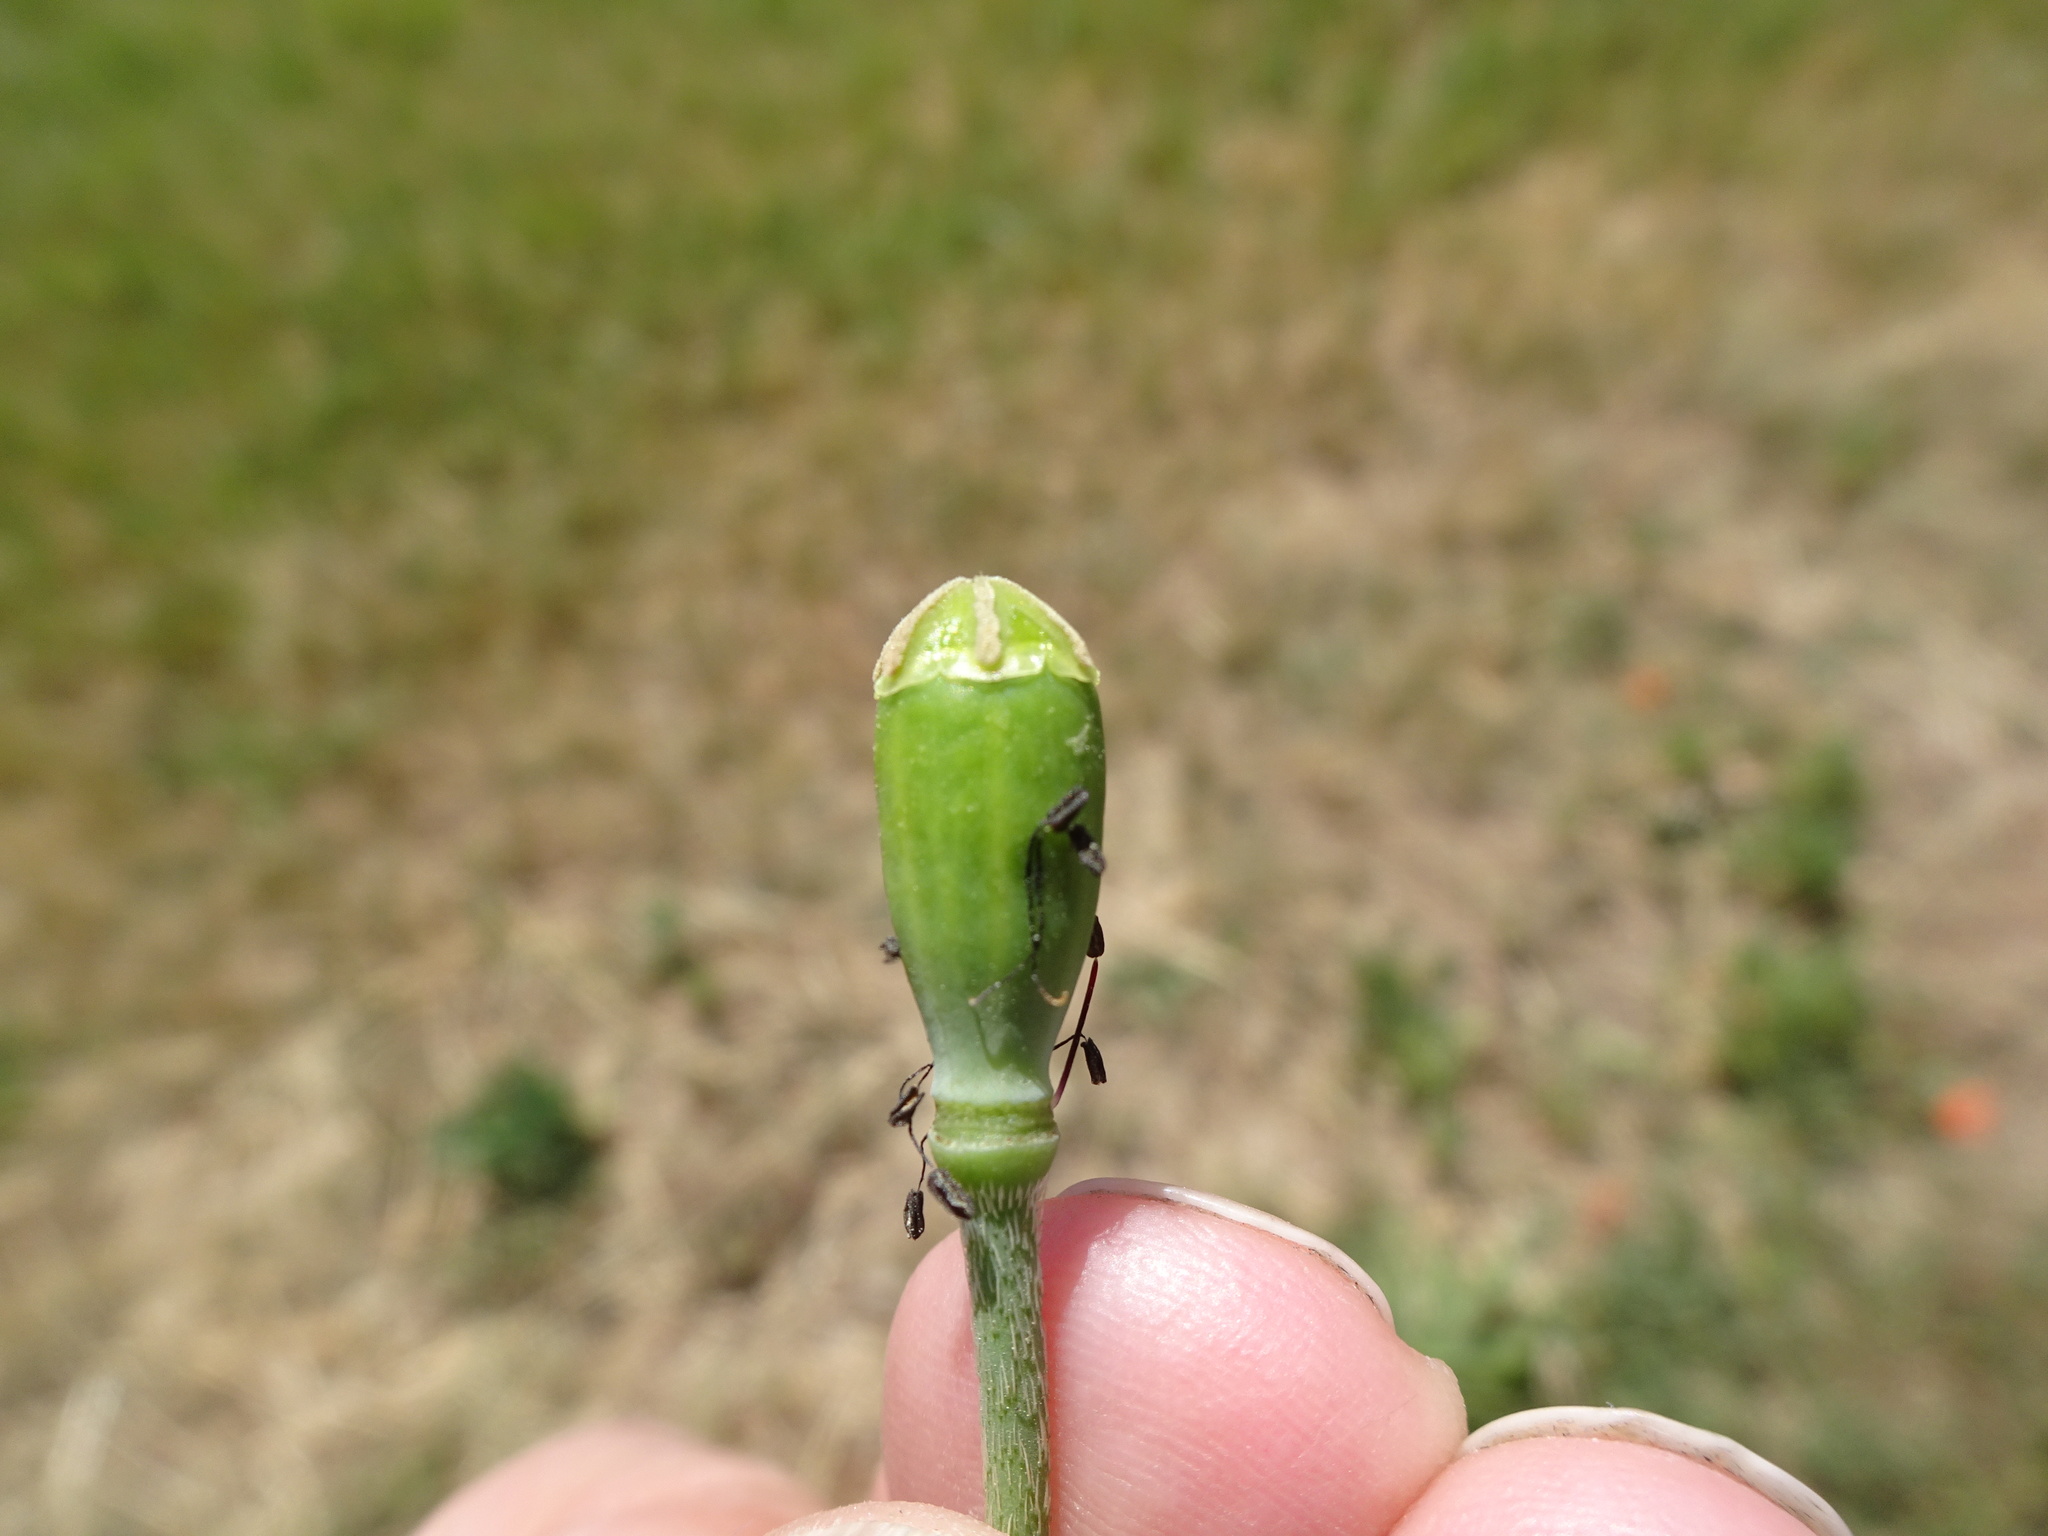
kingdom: Plantae
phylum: Tracheophyta
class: Magnoliopsida
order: Ranunculales
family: Papaveraceae
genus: Papaver
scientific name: Papaver dubium
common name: Long-headed poppy
